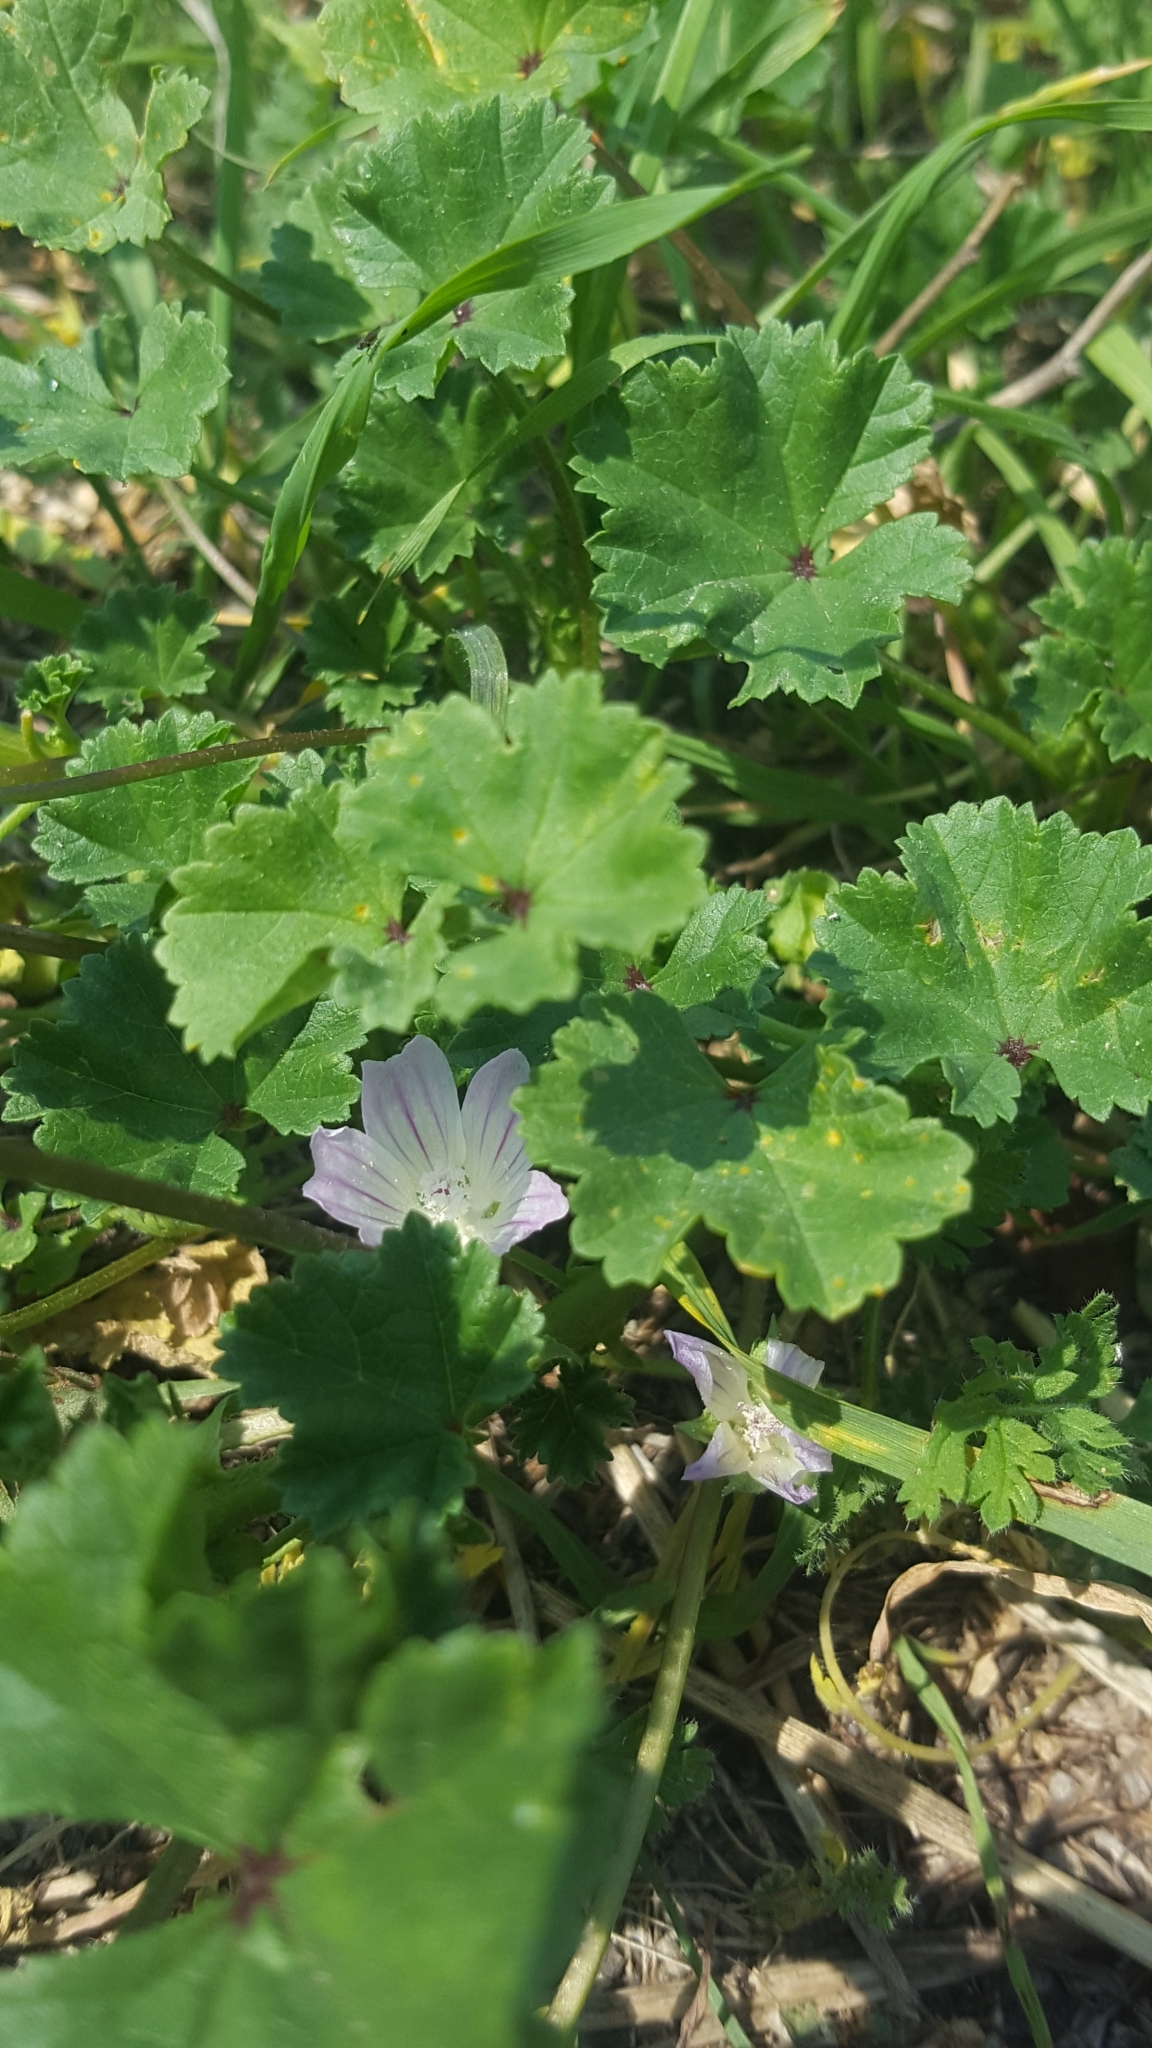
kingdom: Plantae
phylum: Tracheophyta
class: Magnoliopsida
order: Malvales
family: Malvaceae
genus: Malva
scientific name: Malva neglecta
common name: Common mallow
